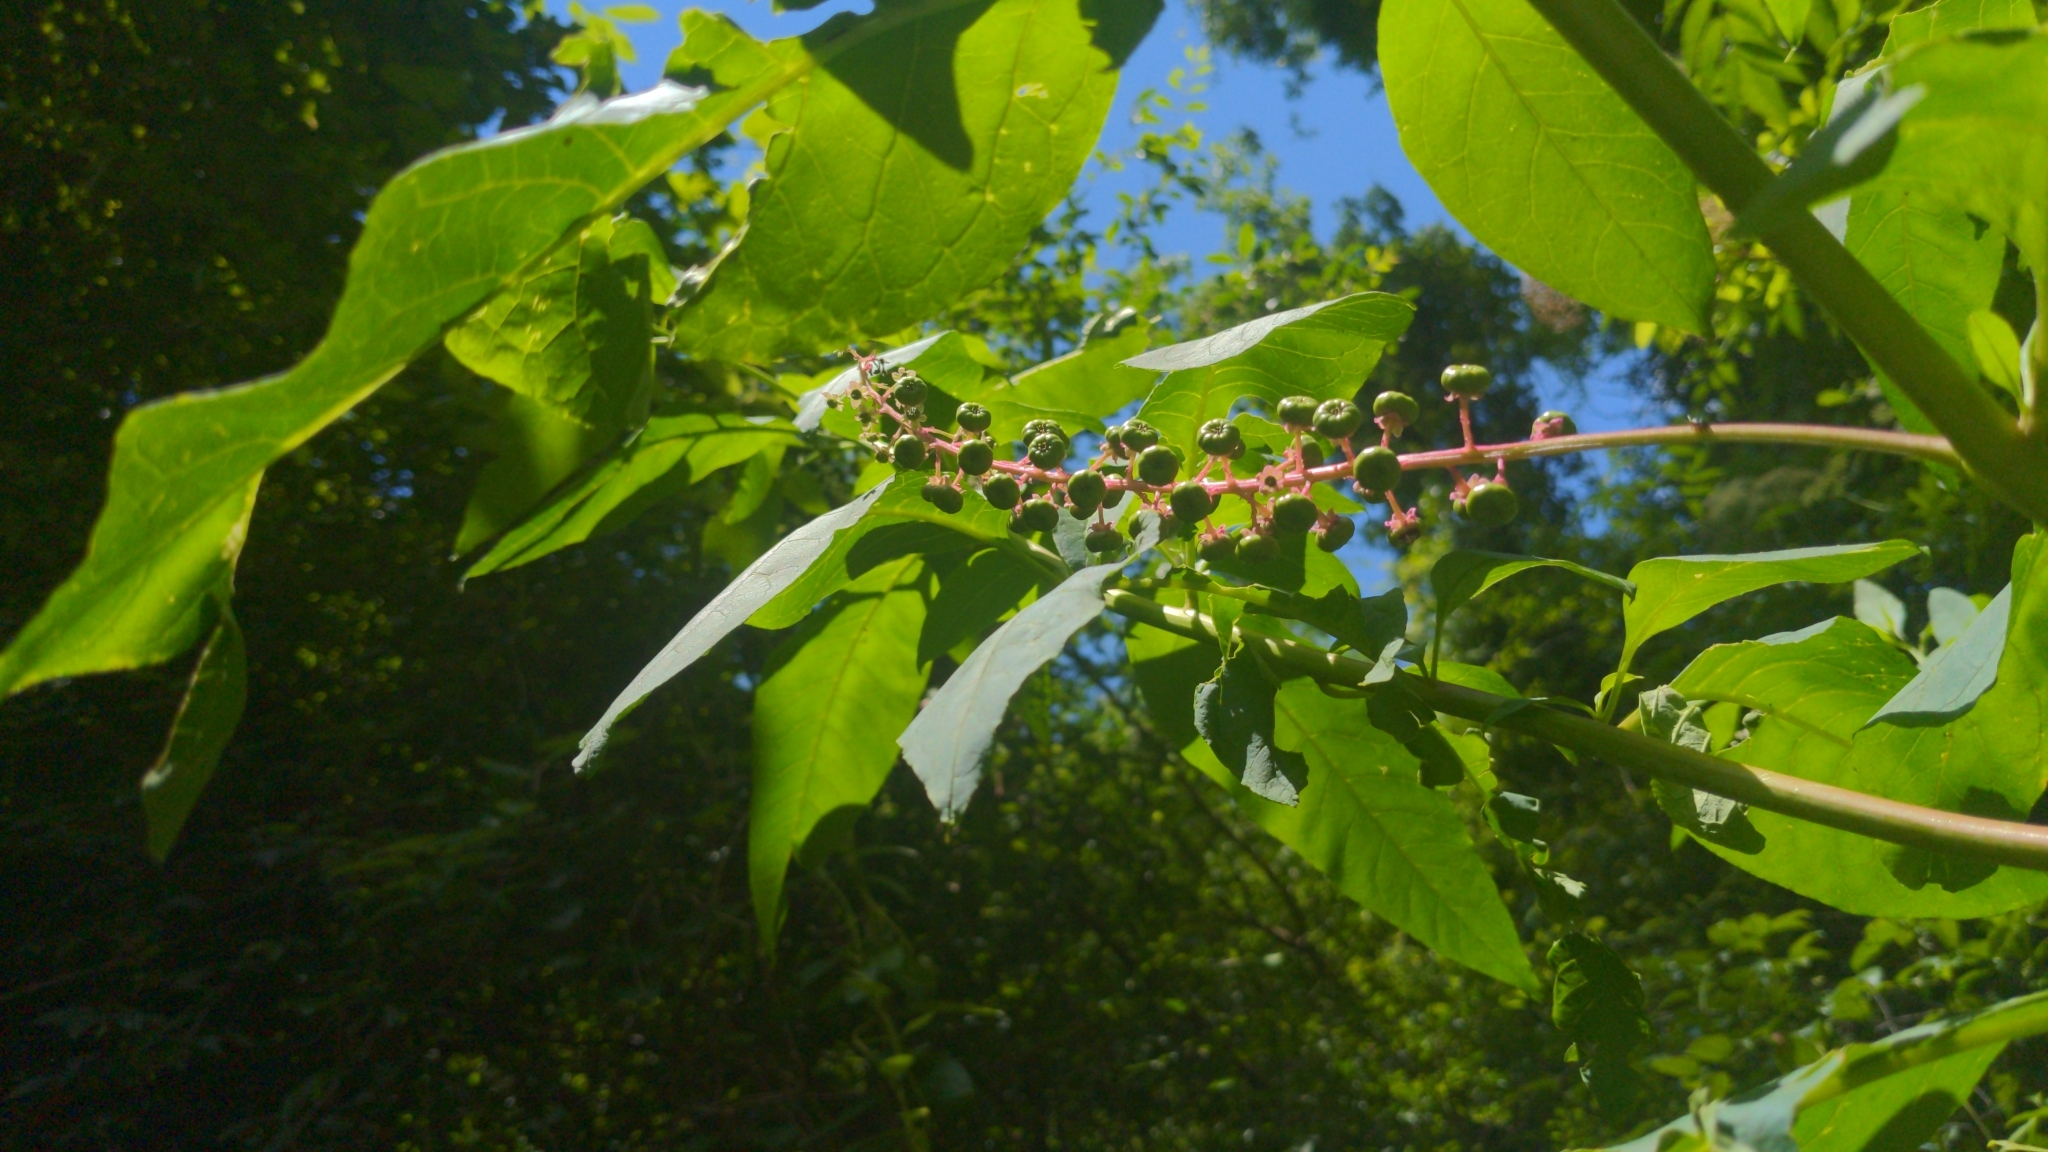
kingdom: Plantae
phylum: Tracheophyta
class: Magnoliopsida
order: Caryophyllales
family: Phytolaccaceae
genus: Phytolacca
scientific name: Phytolacca americana
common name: American pokeweed
